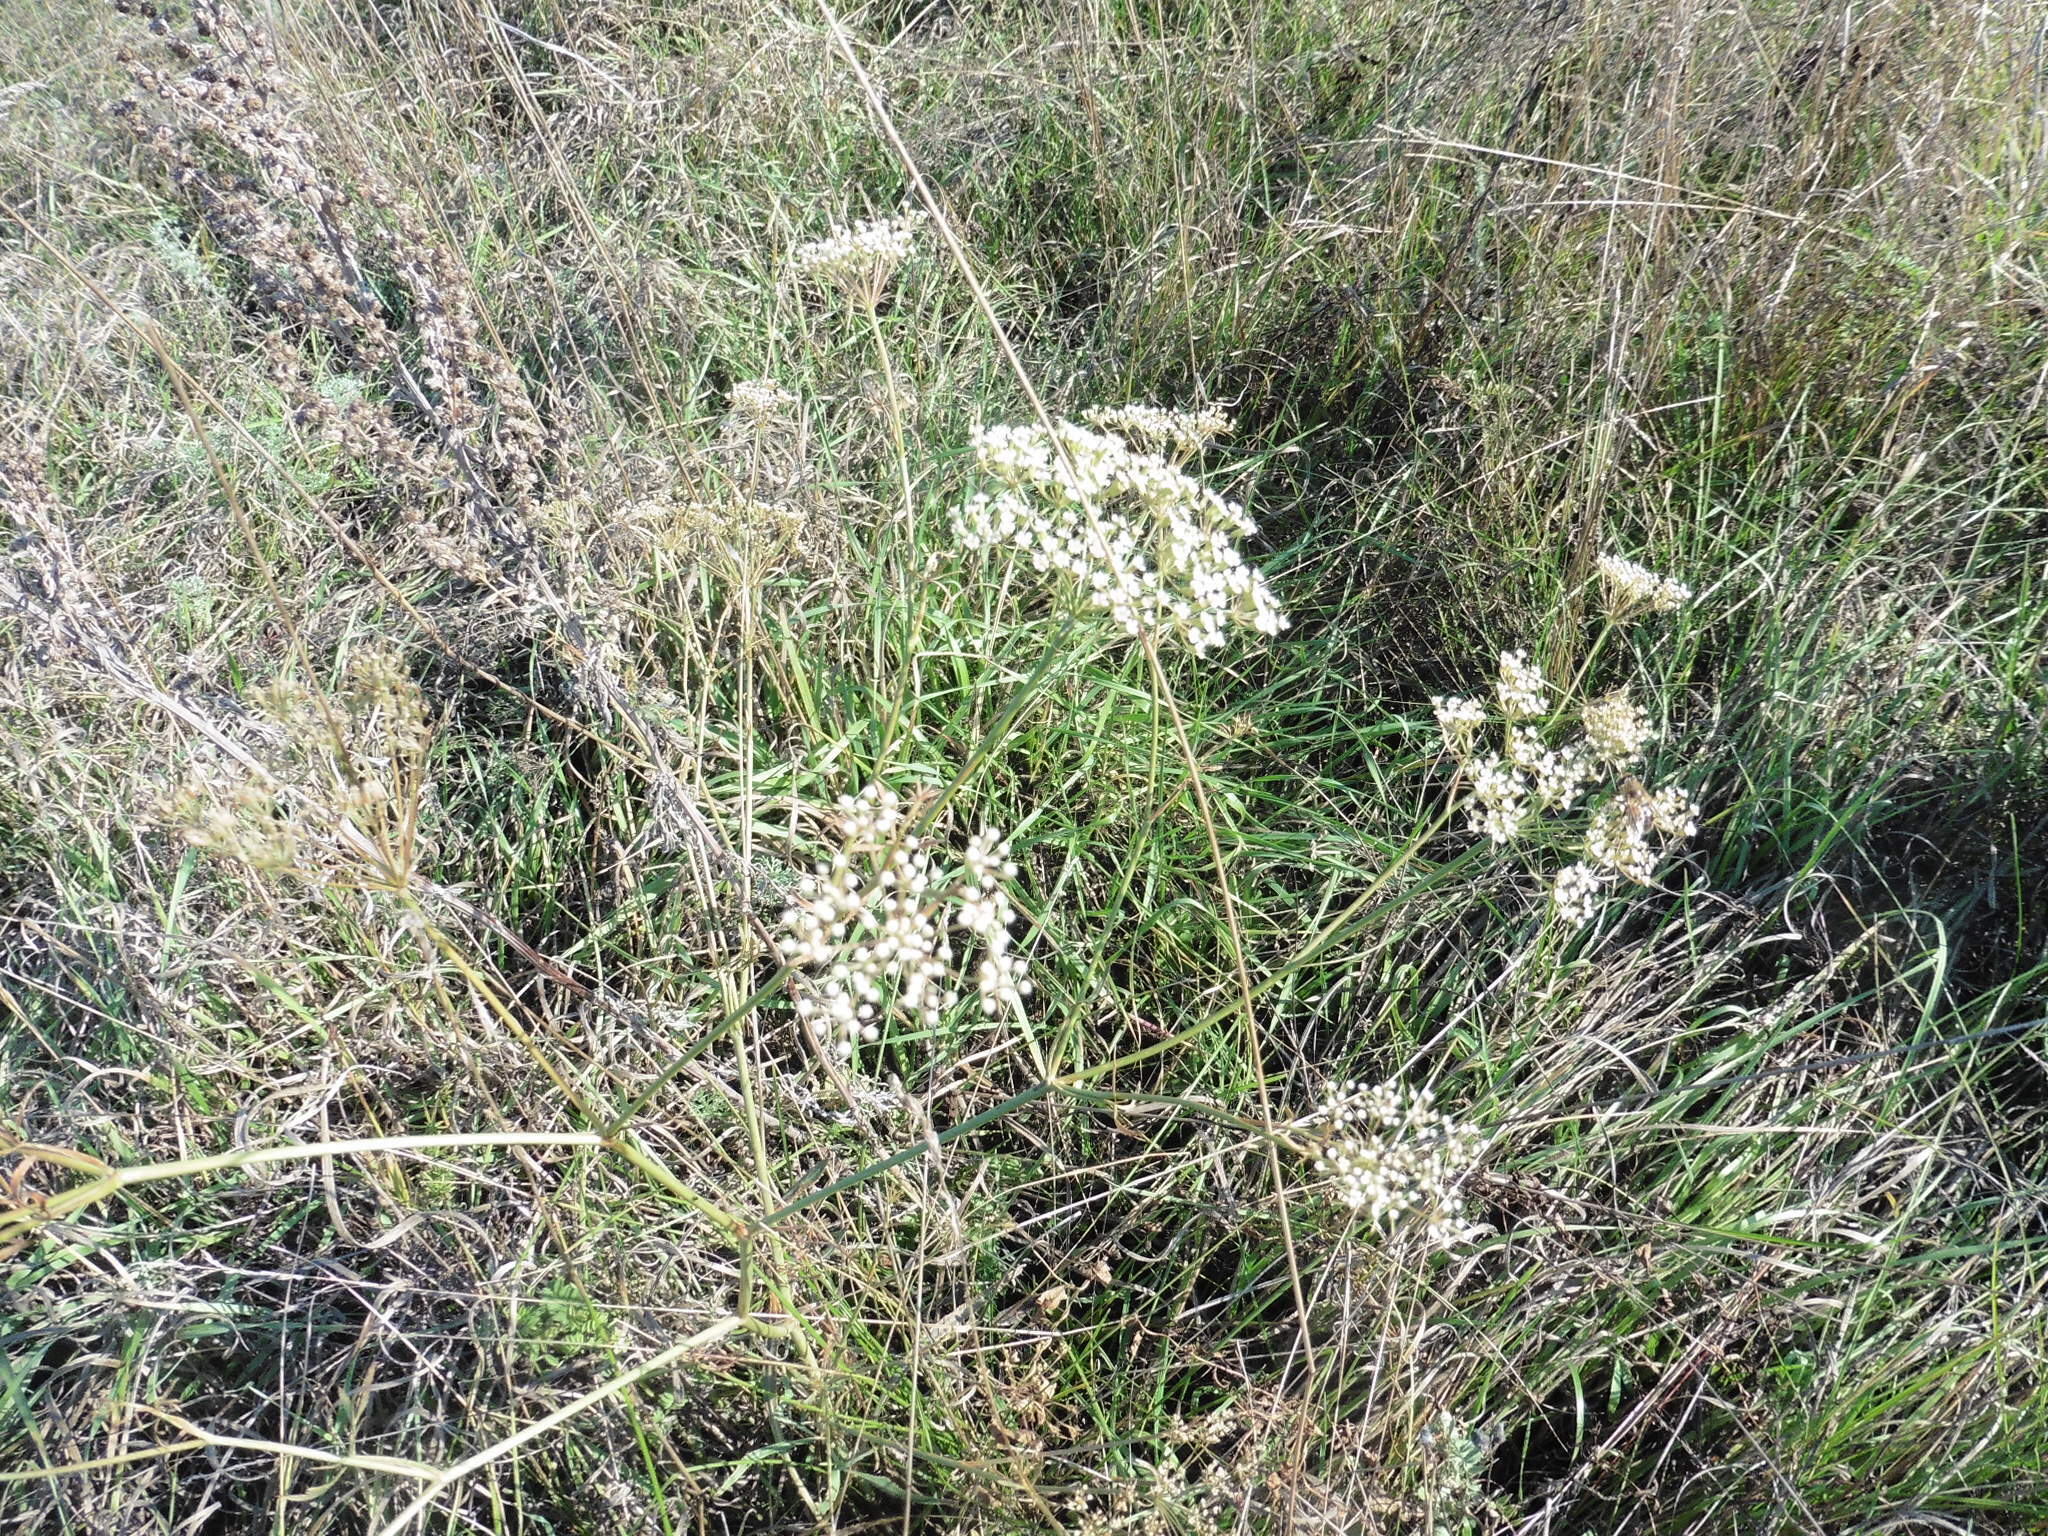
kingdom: Plantae
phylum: Tracheophyta
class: Magnoliopsida
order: Apiales
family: Apiaceae
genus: Pimpinella
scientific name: Pimpinella saxifraga
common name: Burnet-saxifrage
